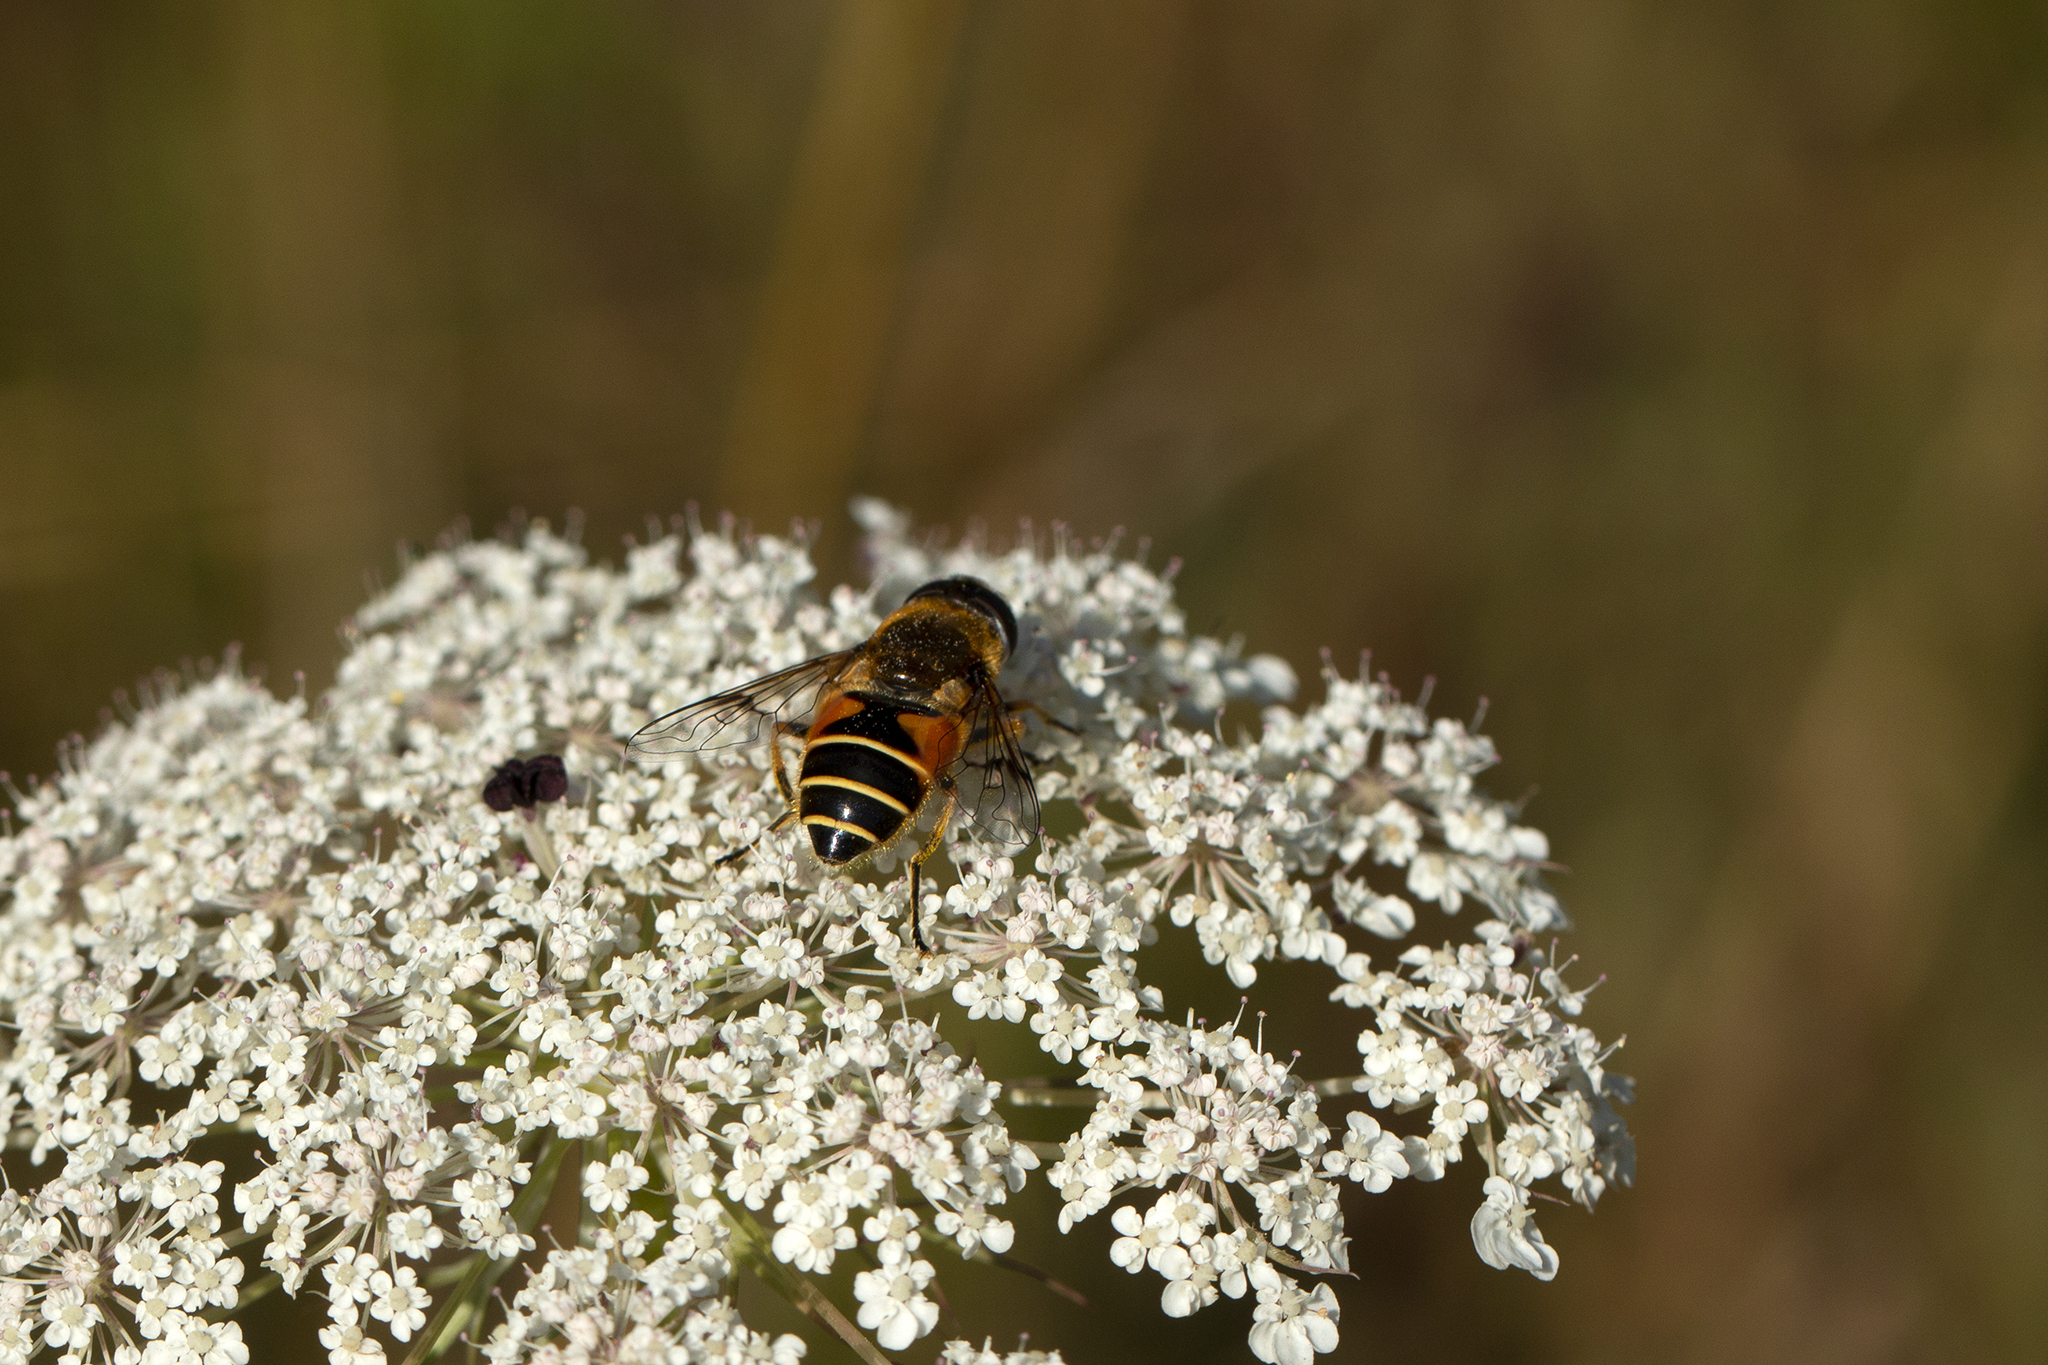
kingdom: Animalia
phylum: Arthropoda
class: Insecta
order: Diptera
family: Syrphidae
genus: Cheilosia
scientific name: Cheilosia morio
